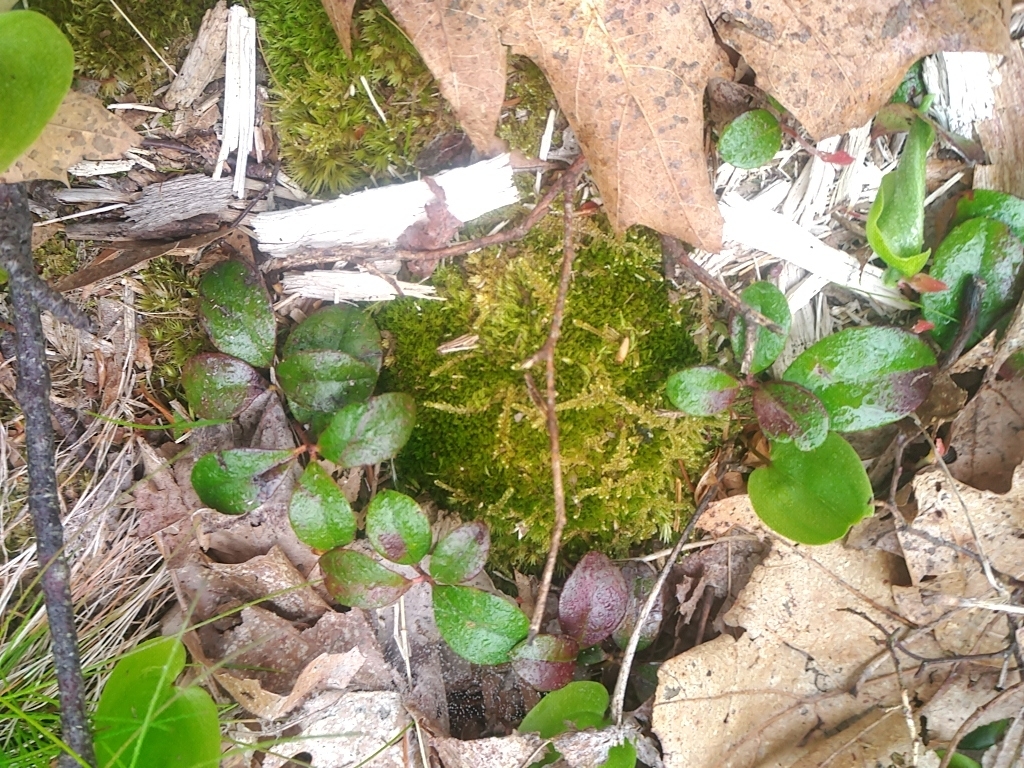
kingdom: Plantae
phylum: Tracheophyta
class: Magnoliopsida
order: Ericales
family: Ericaceae
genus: Gaultheria
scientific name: Gaultheria procumbens
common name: Checkerberry
